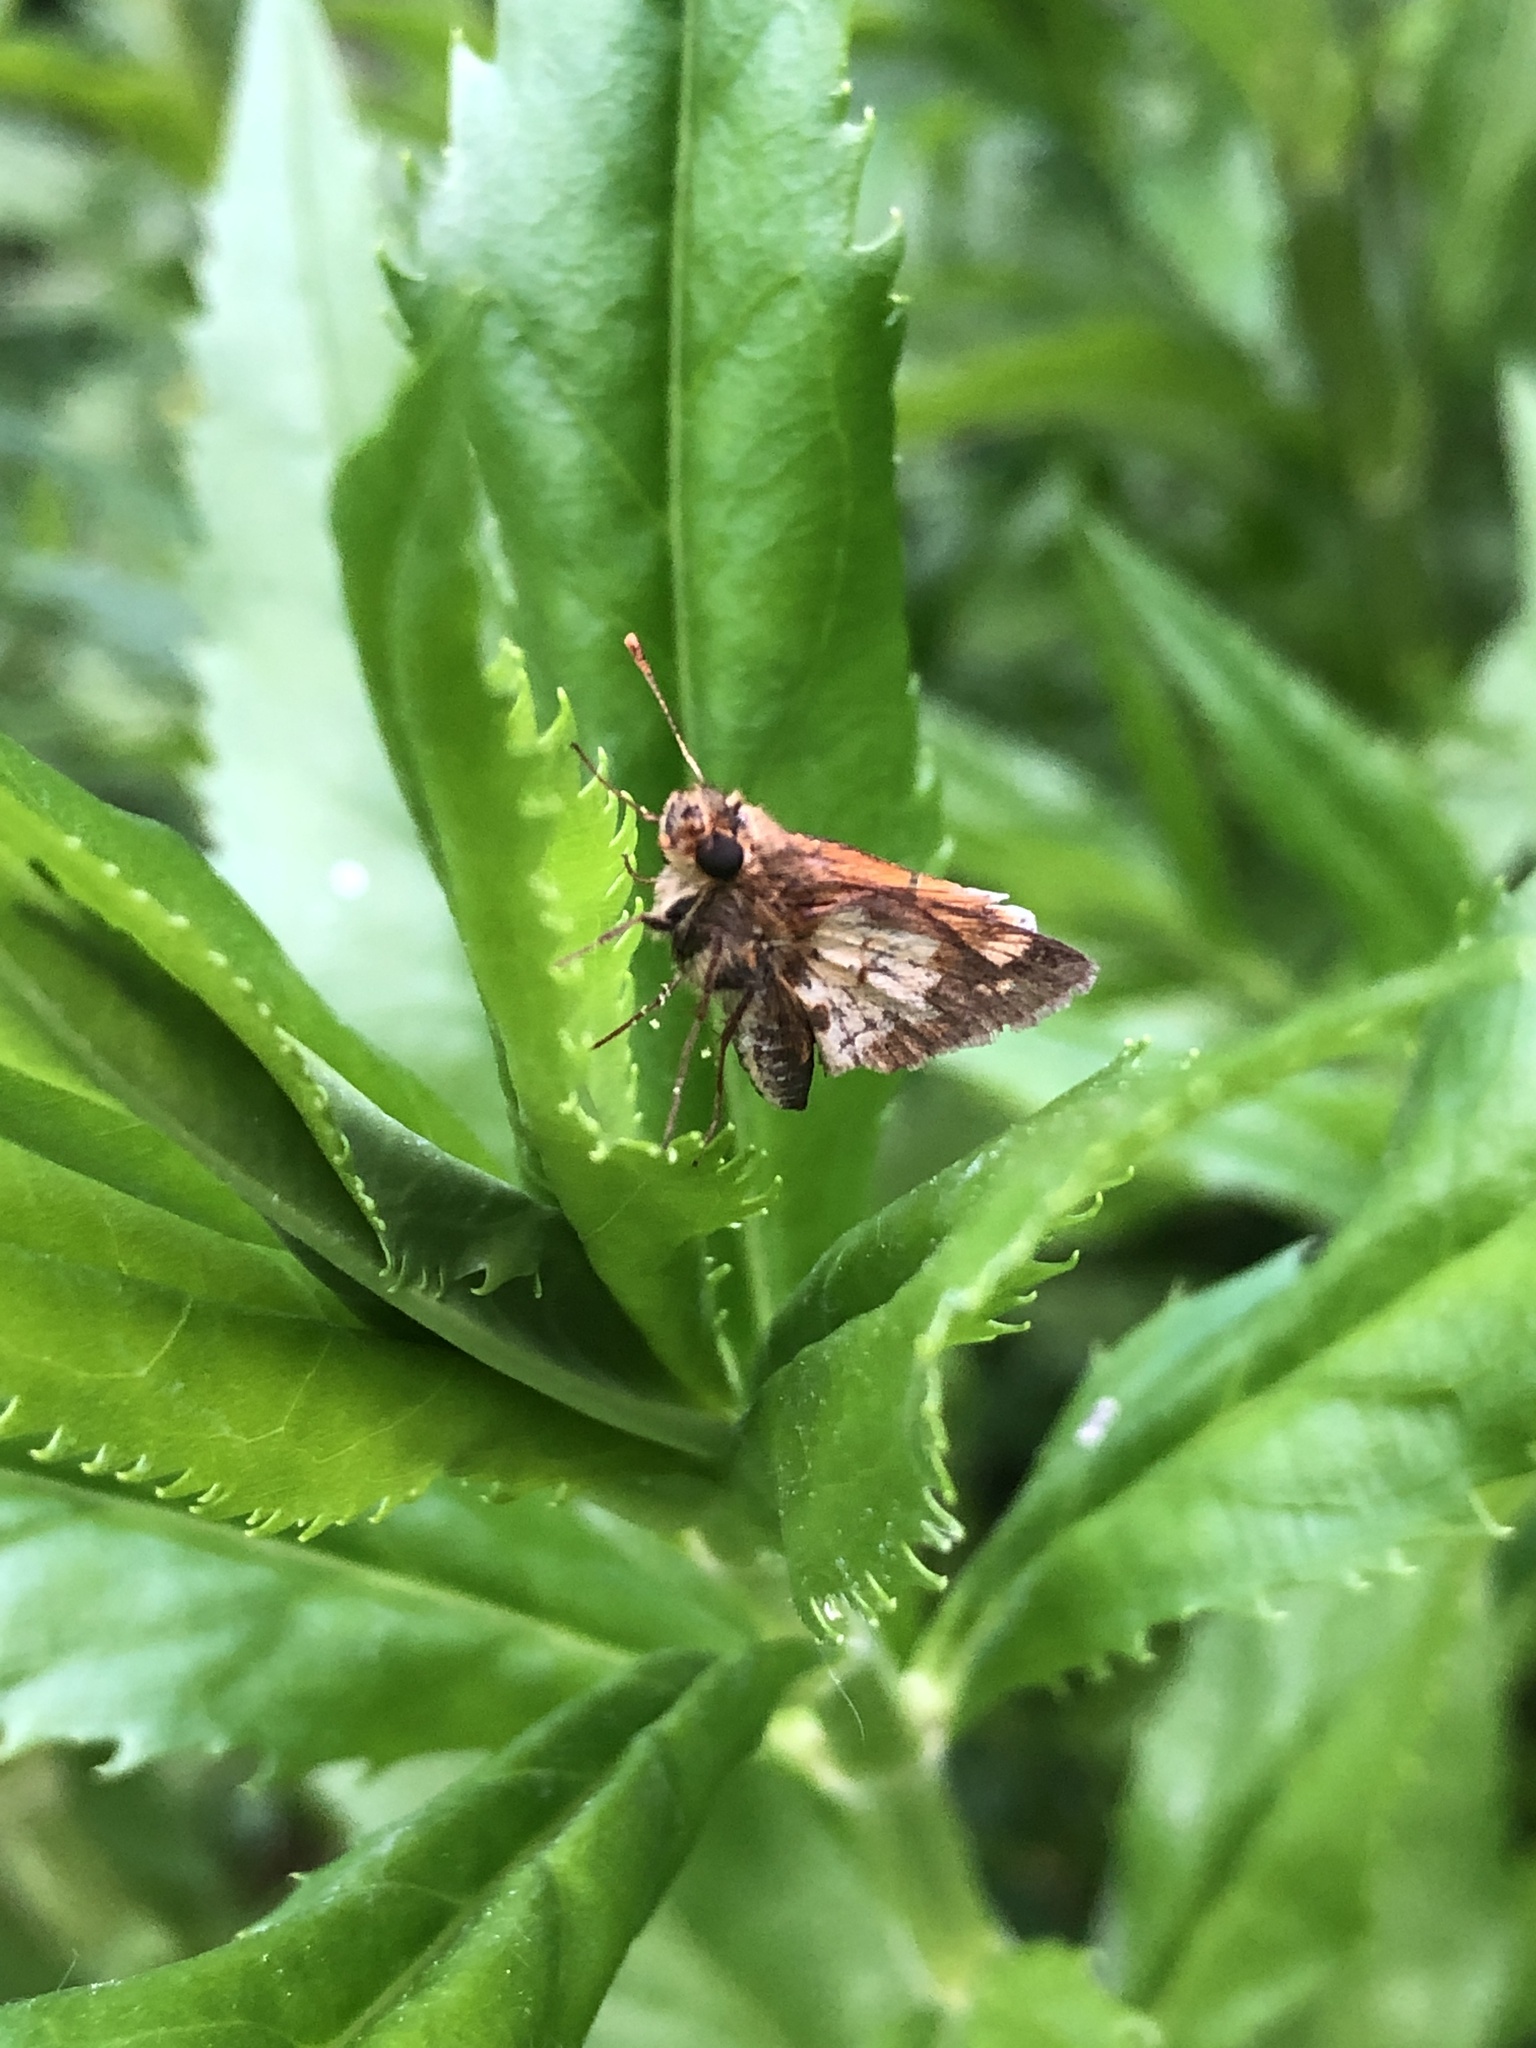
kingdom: Animalia
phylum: Arthropoda
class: Insecta
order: Lepidoptera
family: Hesperiidae
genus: Polites
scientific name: Polites coras
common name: Peck's skipper
